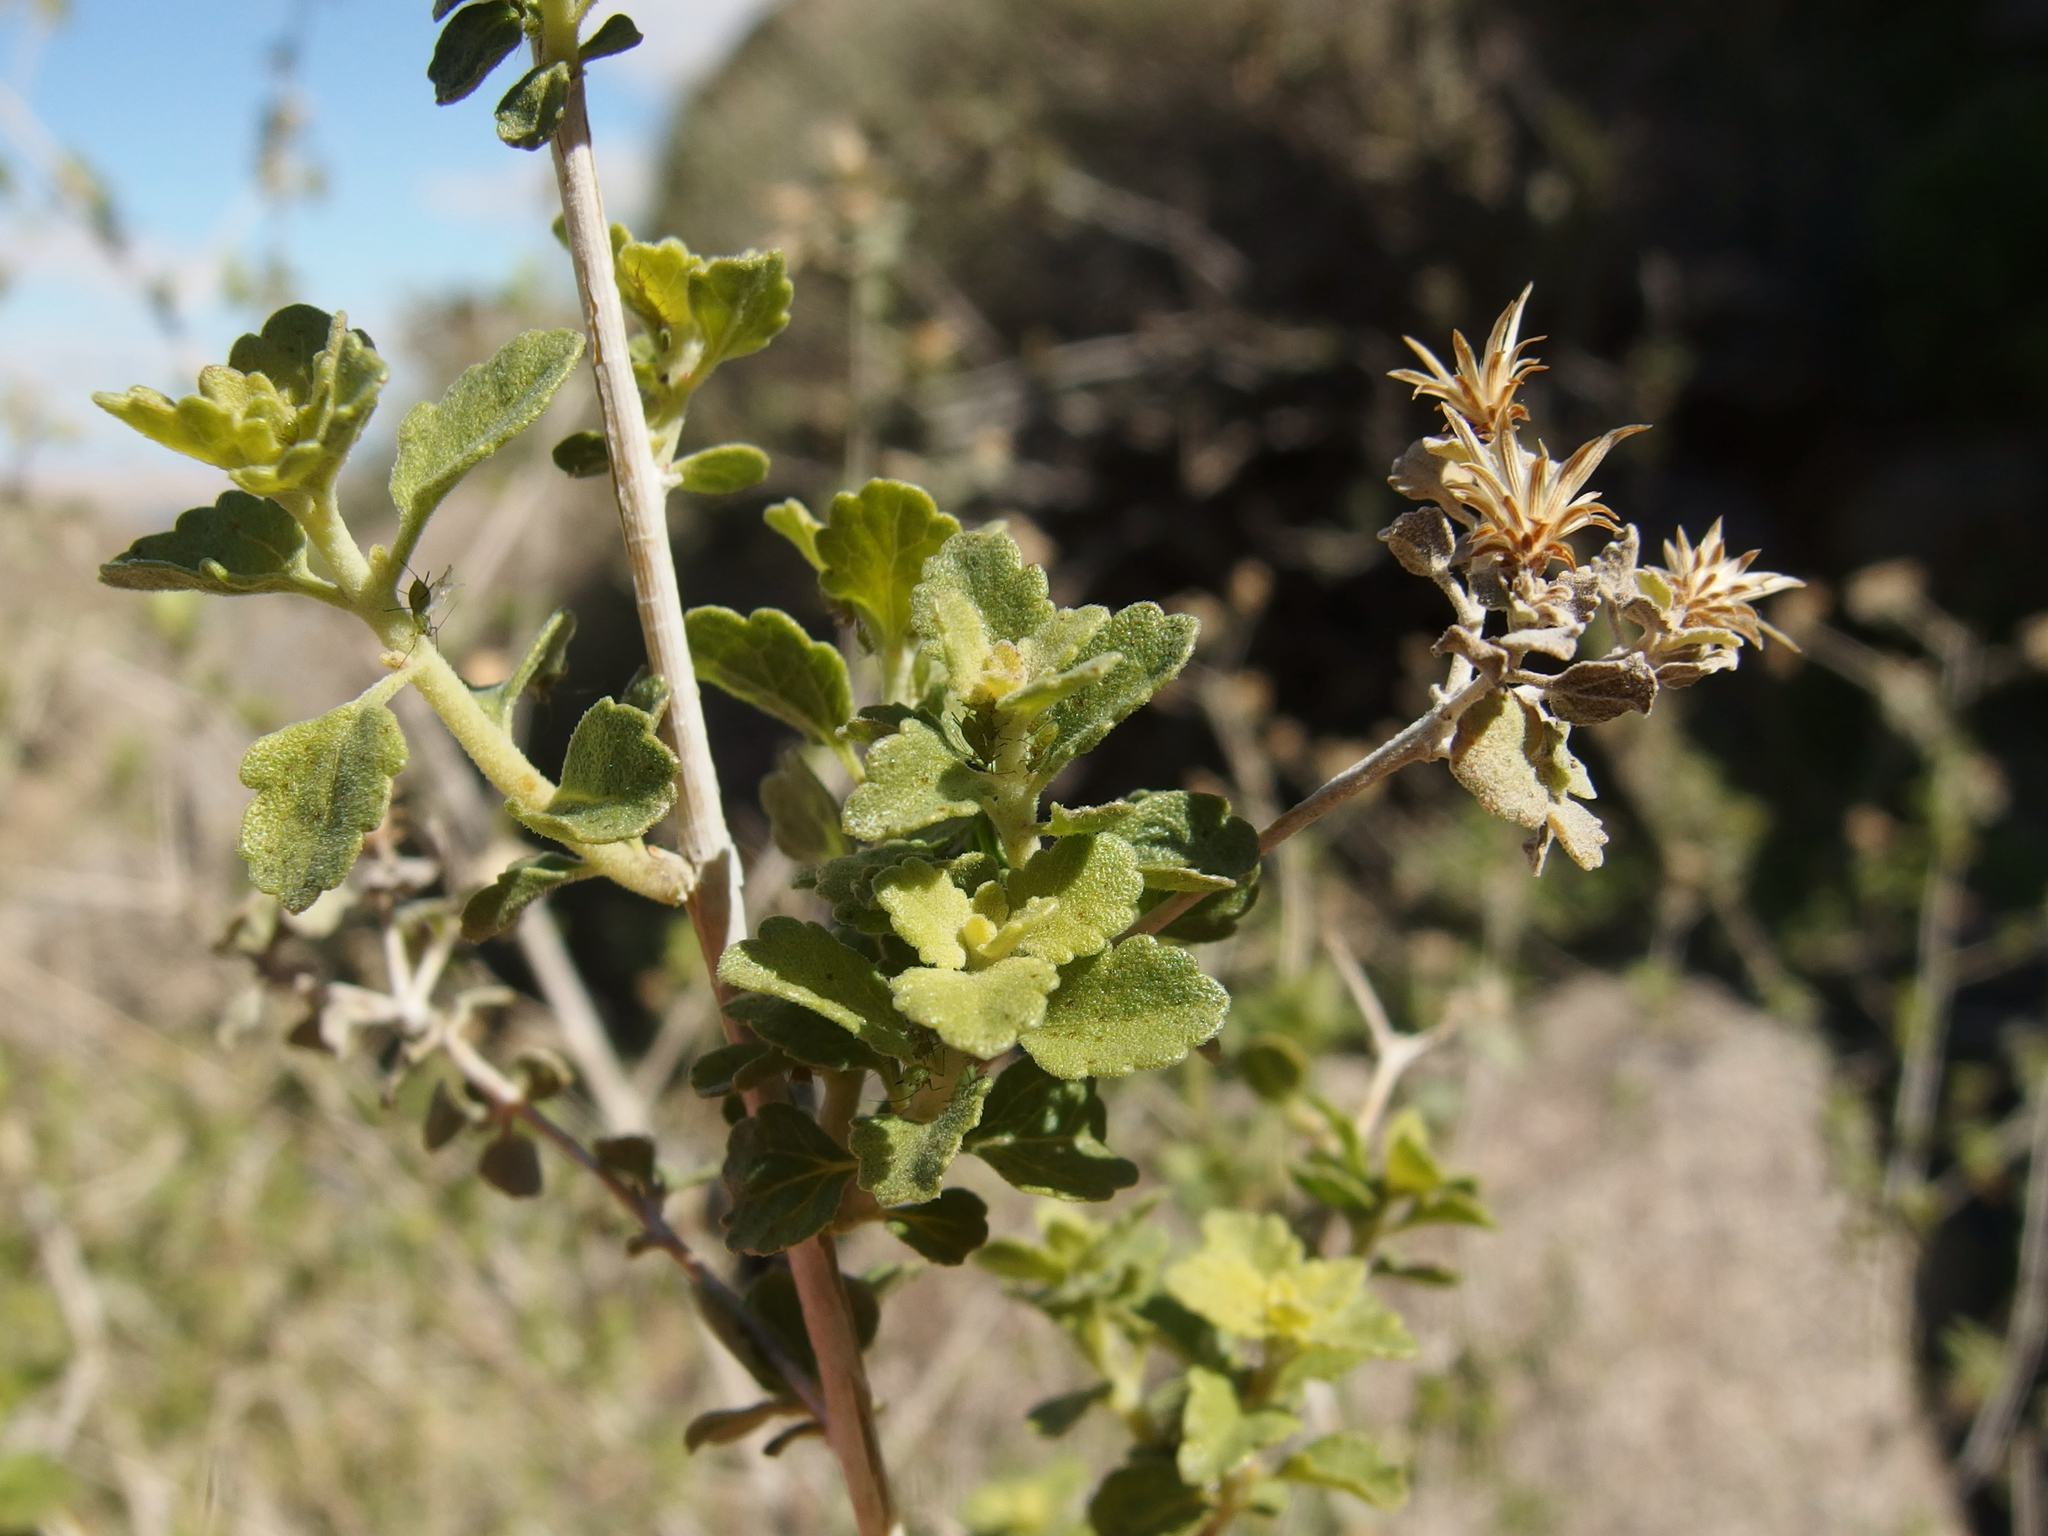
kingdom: Plantae
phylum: Tracheophyta
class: Magnoliopsida
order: Asterales
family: Asteraceae
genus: Brickellia
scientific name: Brickellia desertorum
